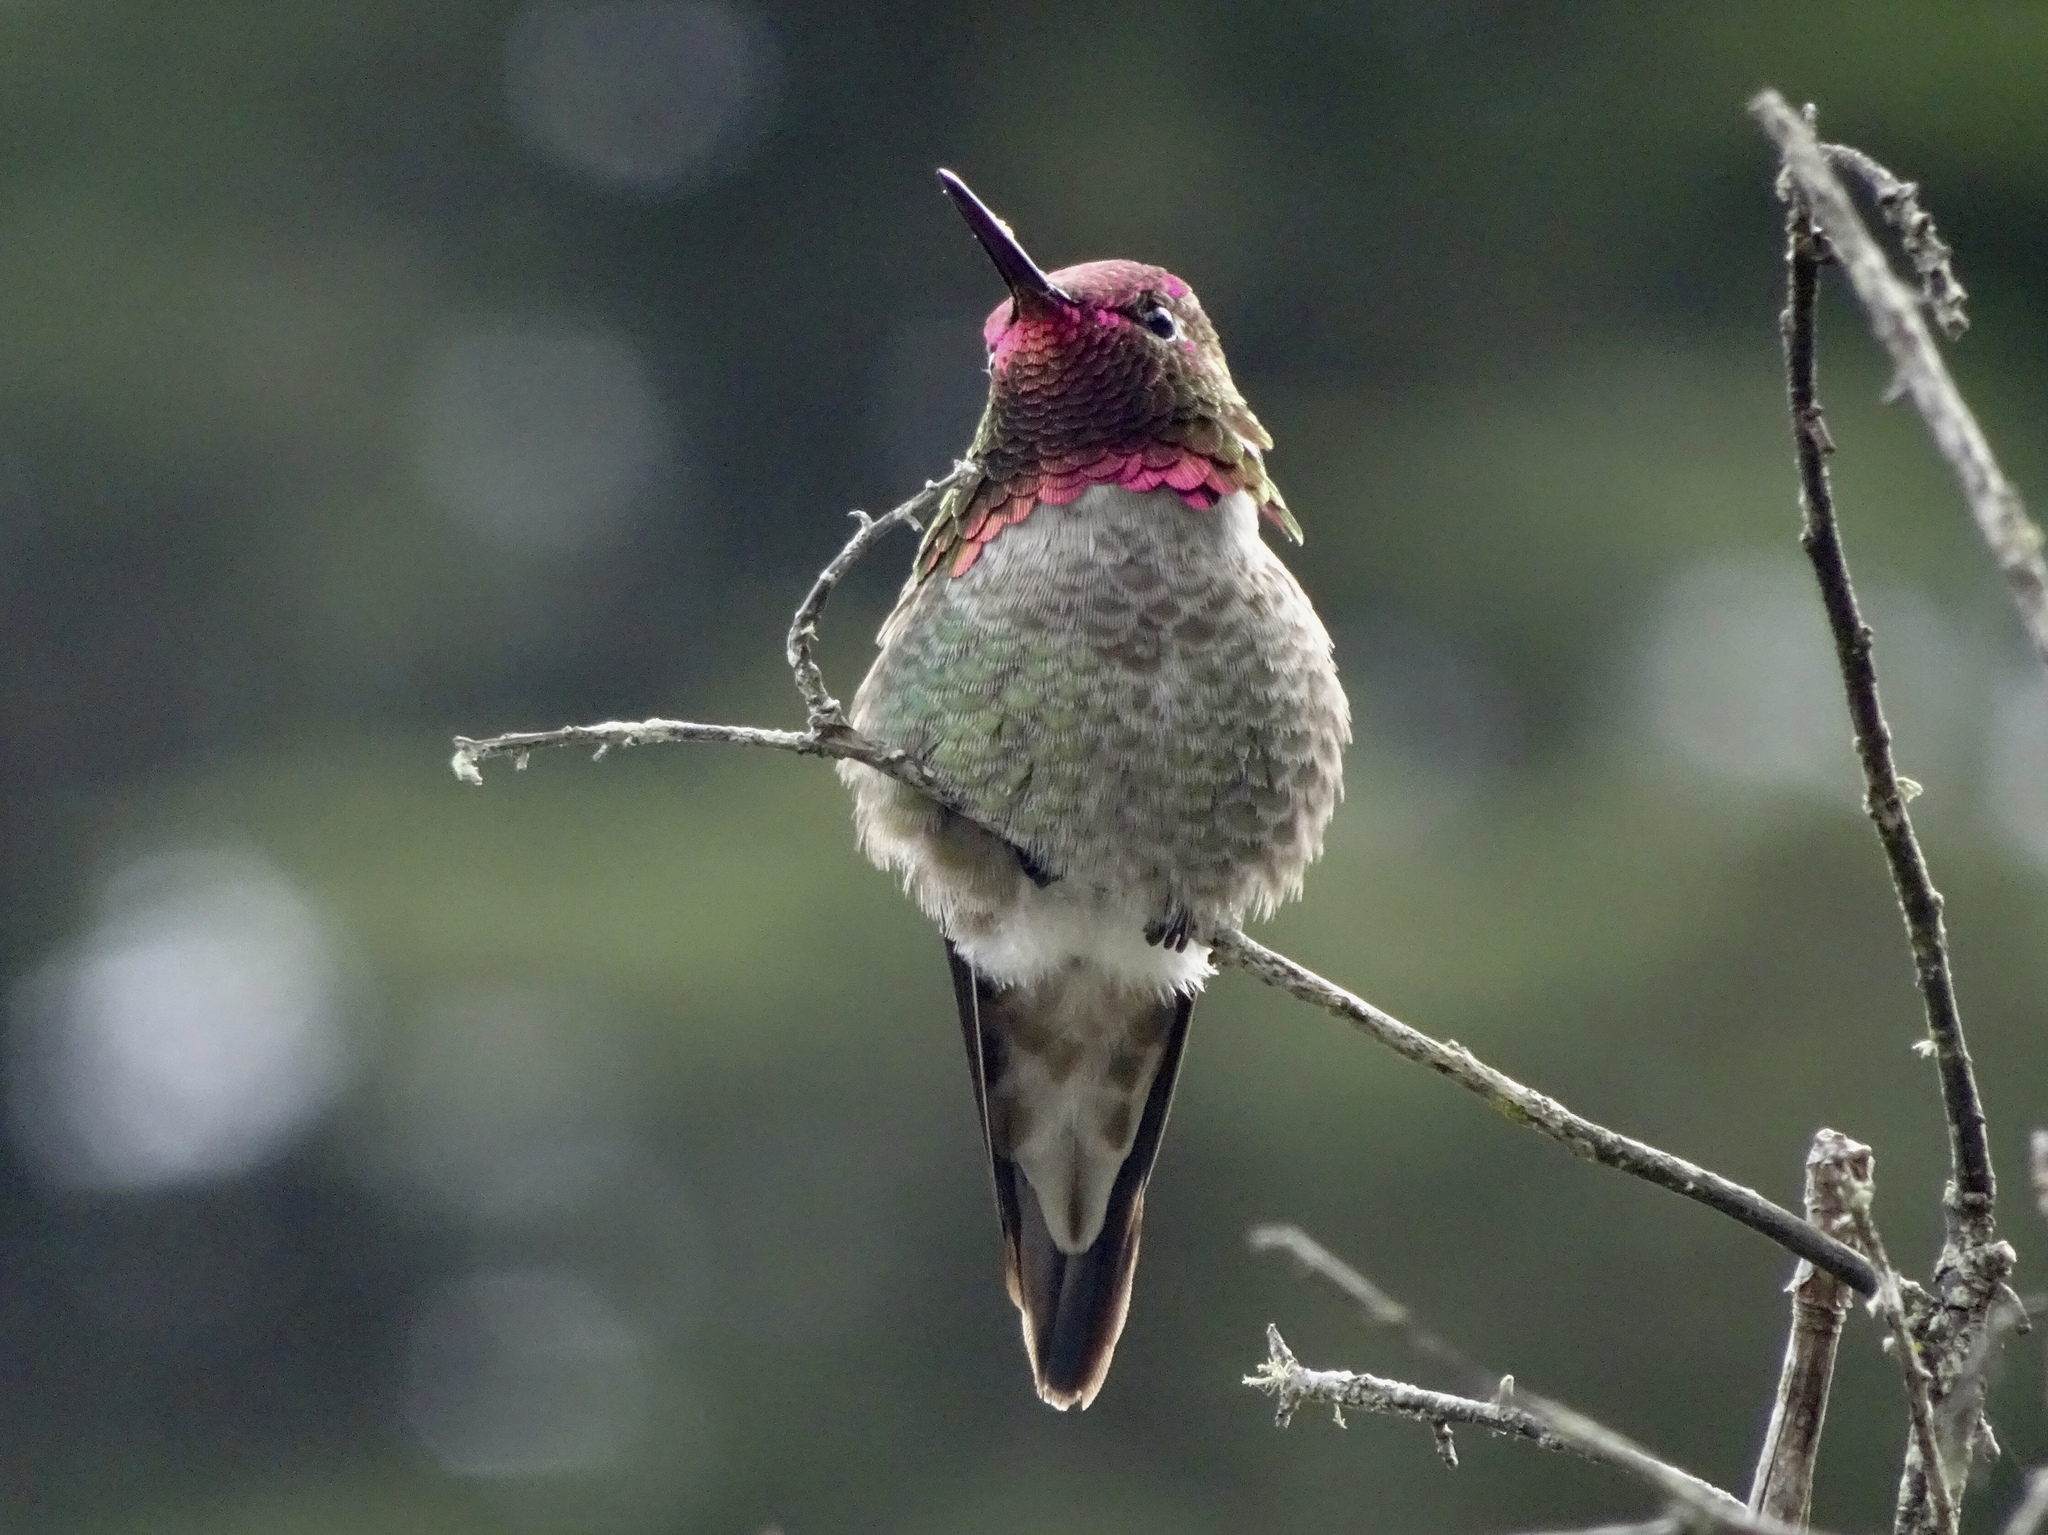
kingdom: Animalia
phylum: Chordata
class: Aves
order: Apodiformes
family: Trochilidae
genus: Calypte
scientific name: Calypte anna
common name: Anna's hummingbird
